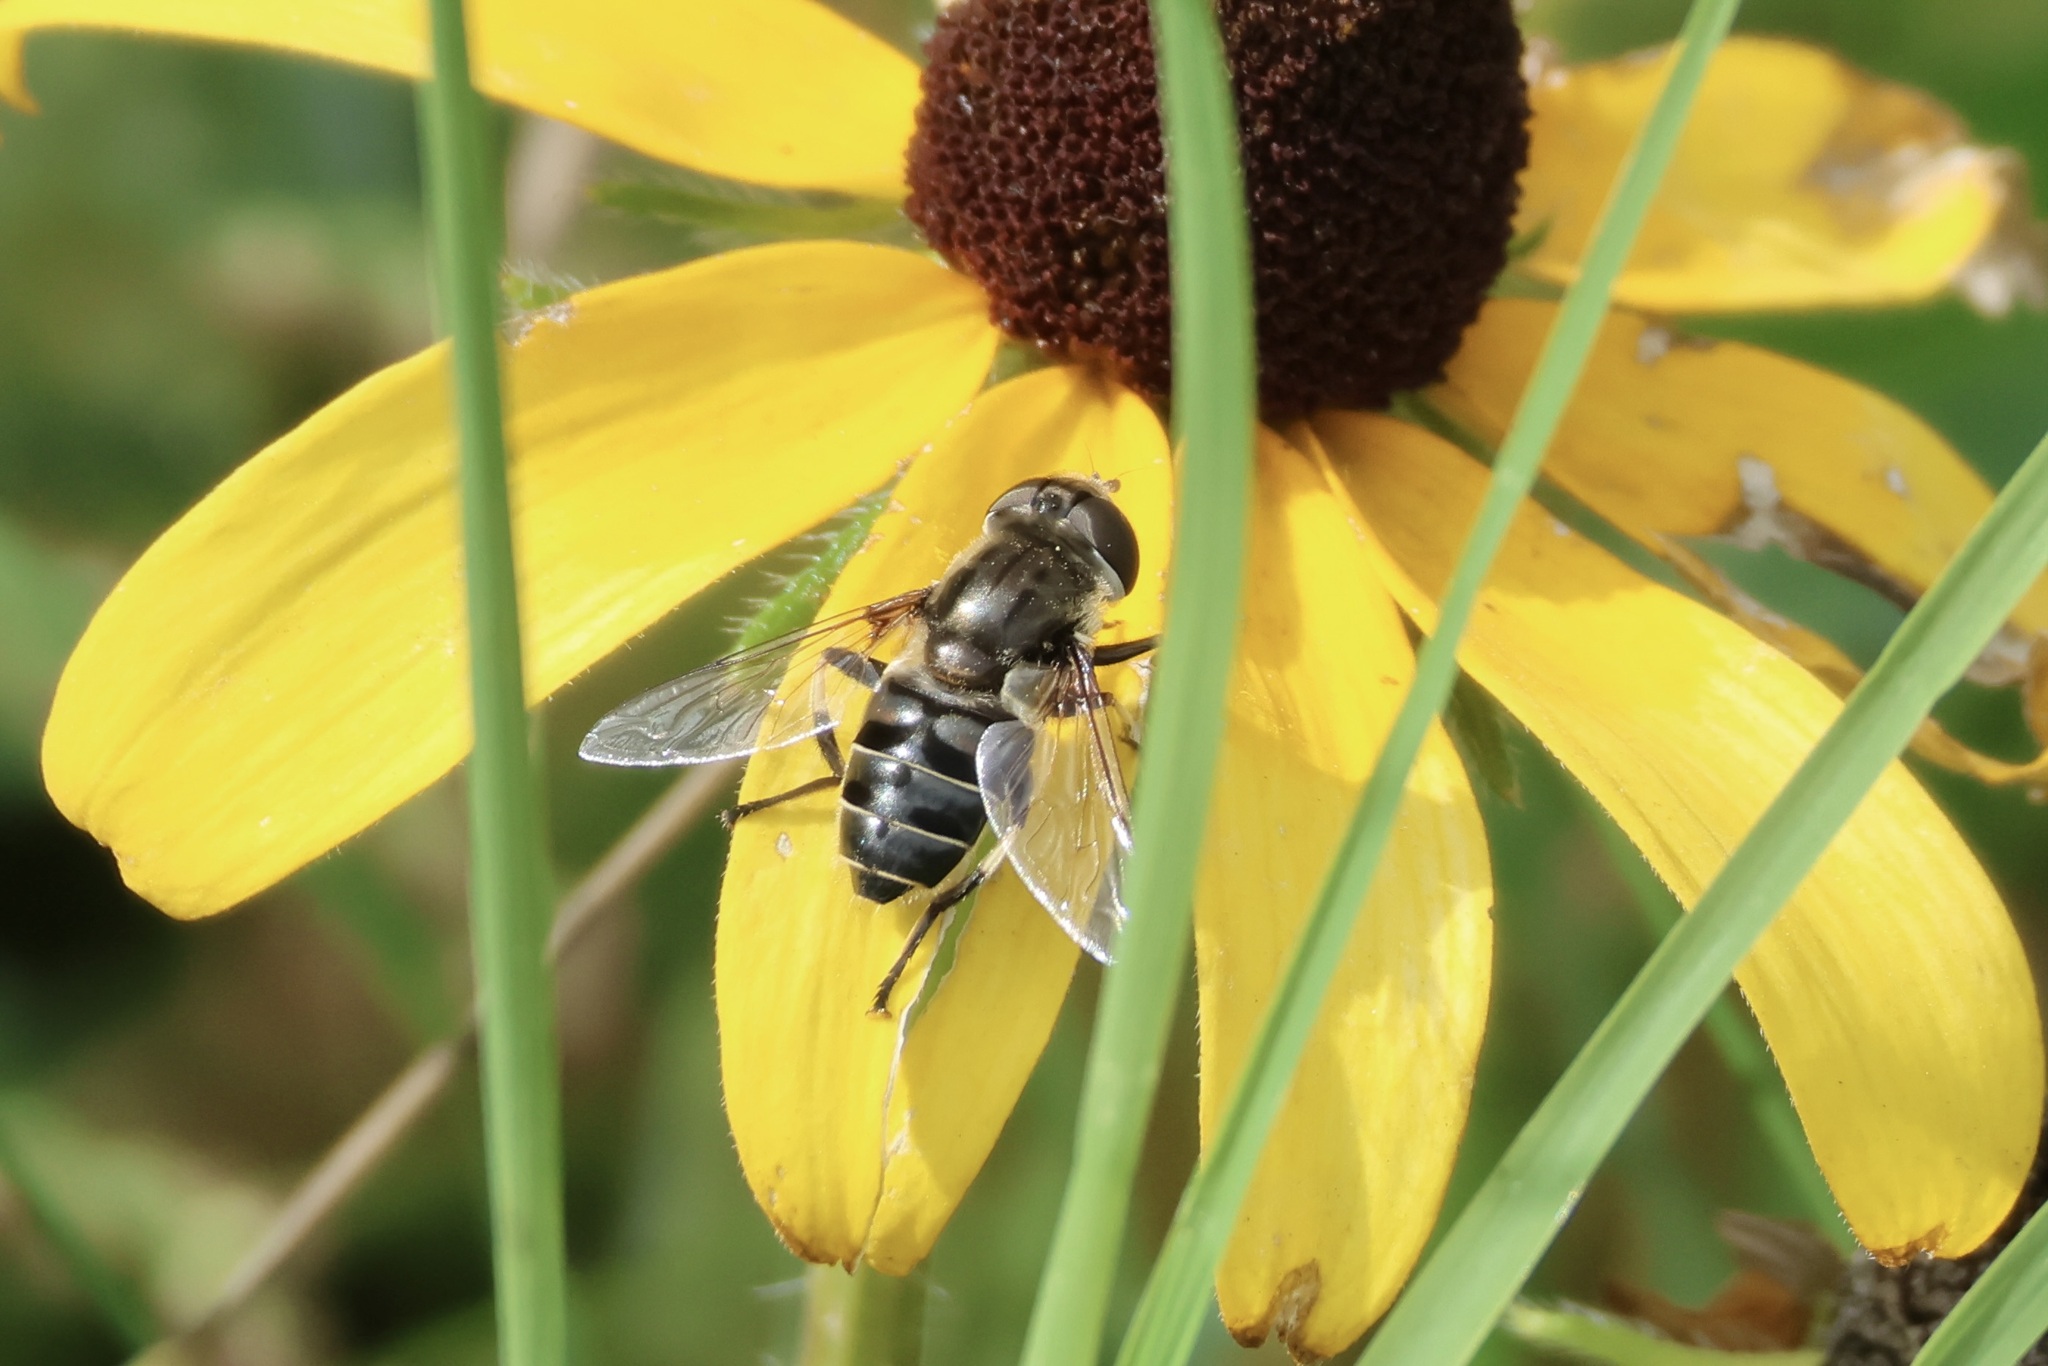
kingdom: Animalia
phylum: Arthropoda
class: Insecta
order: Diptera
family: Syrphidae
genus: Eristalis
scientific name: Eristalis dimidiata
